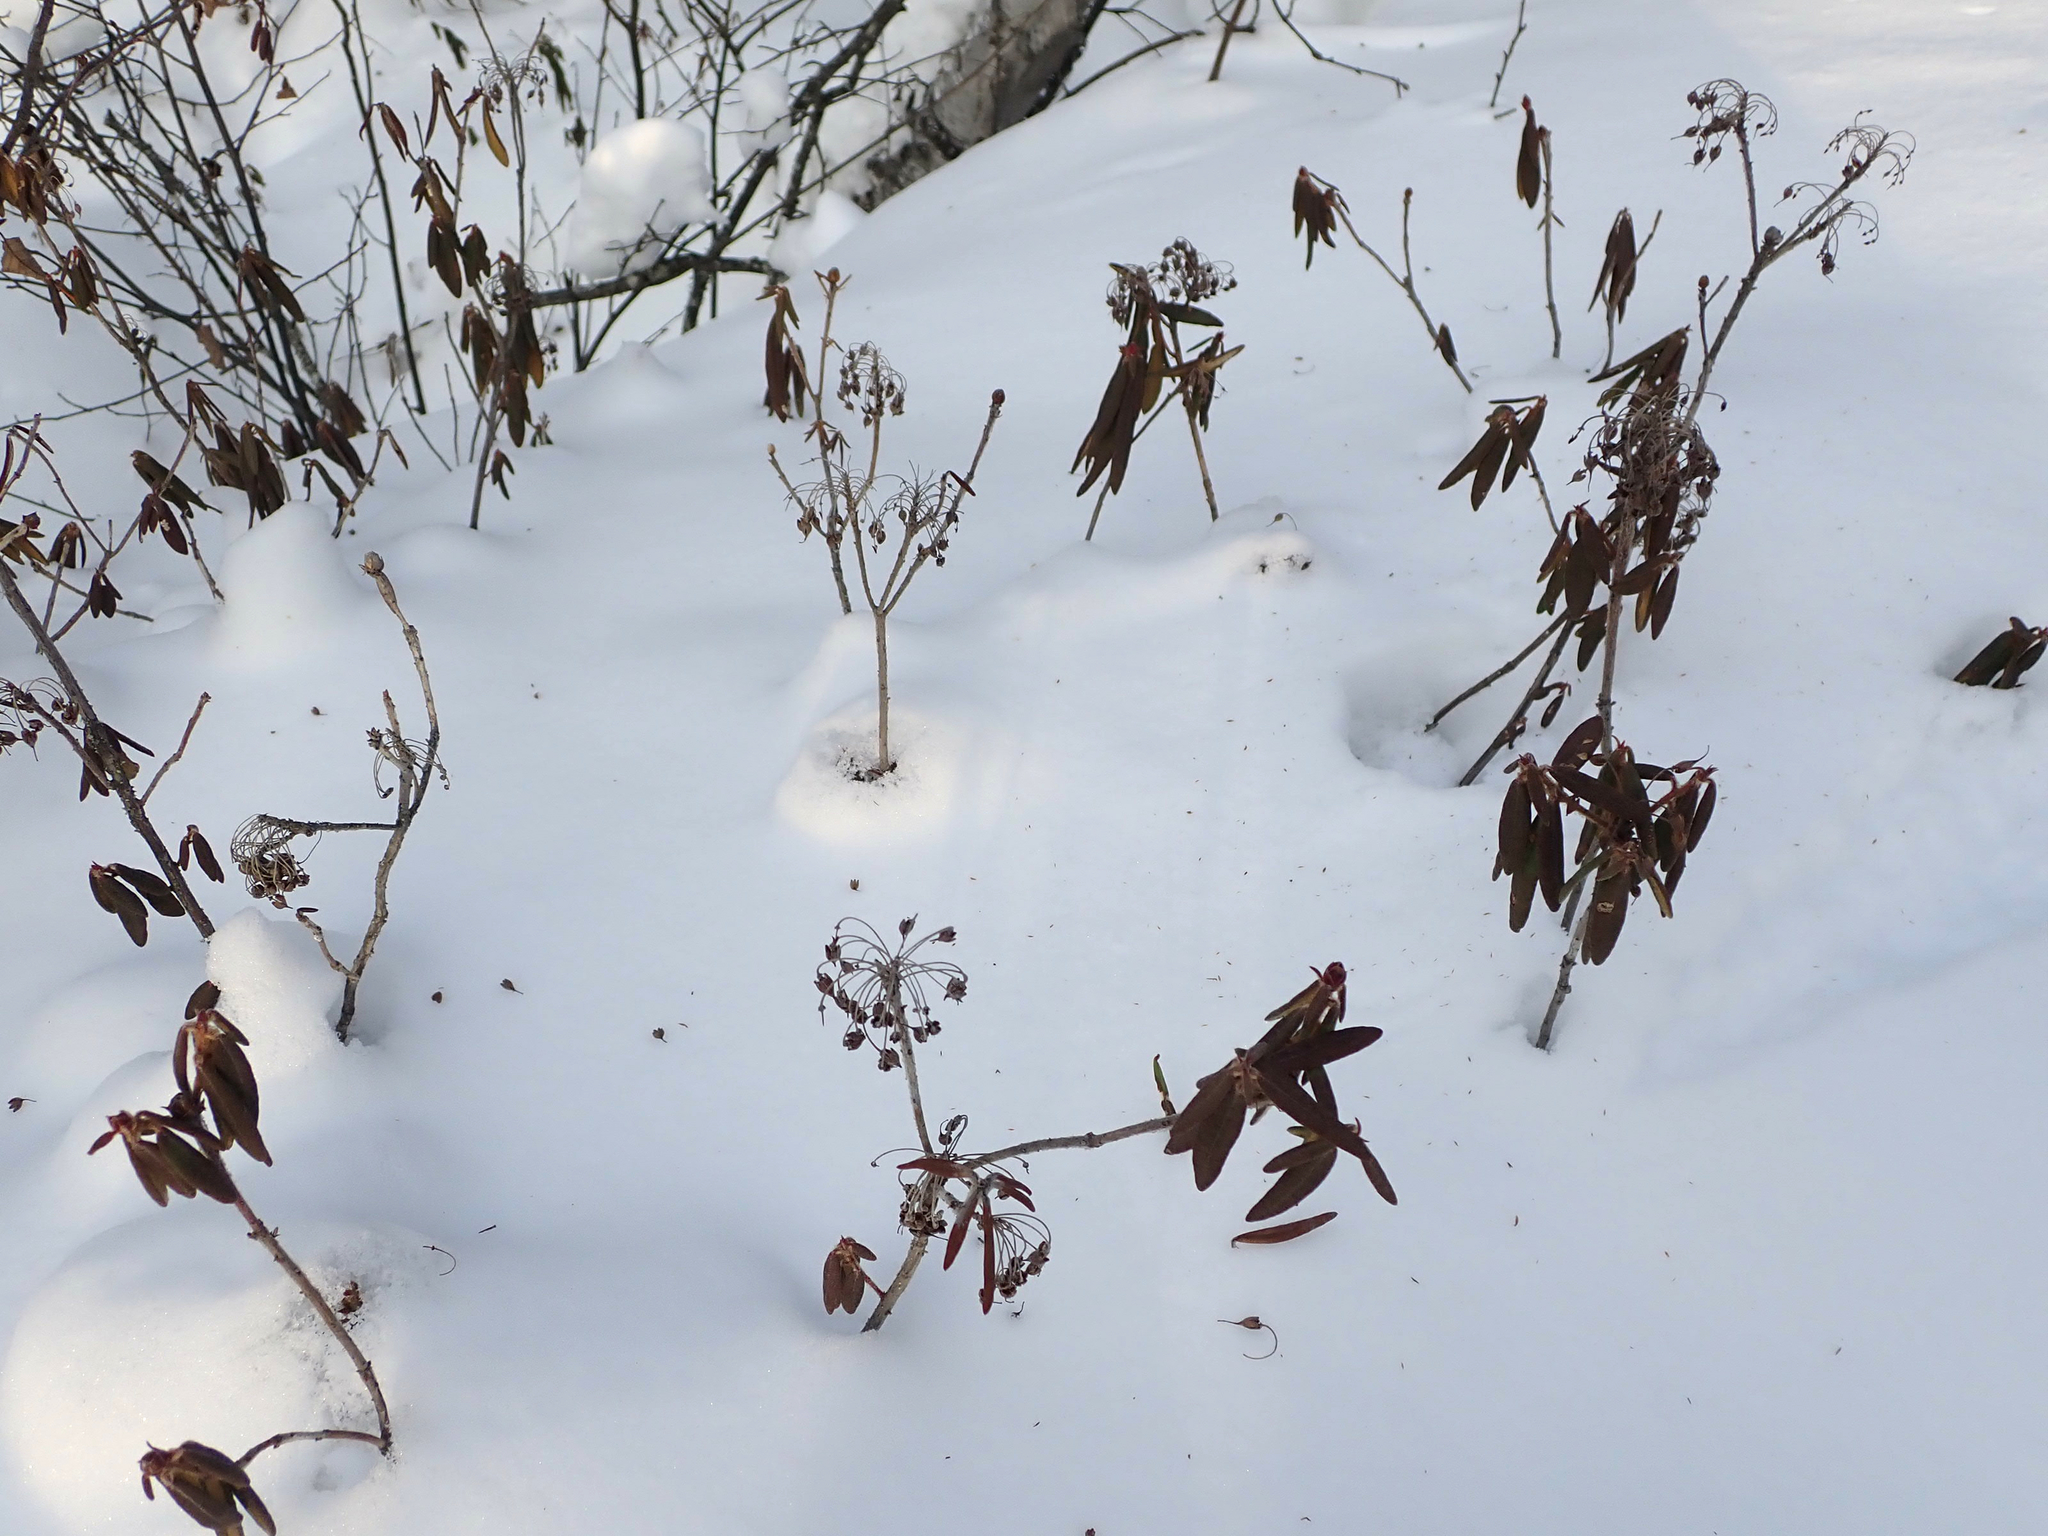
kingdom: Plantae
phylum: Tracheophyta
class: Magnoliopsida
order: Ericales
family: Ericaceae
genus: Rhododendron
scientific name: Rhododendron groenlandicum
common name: Bog labrador tea
